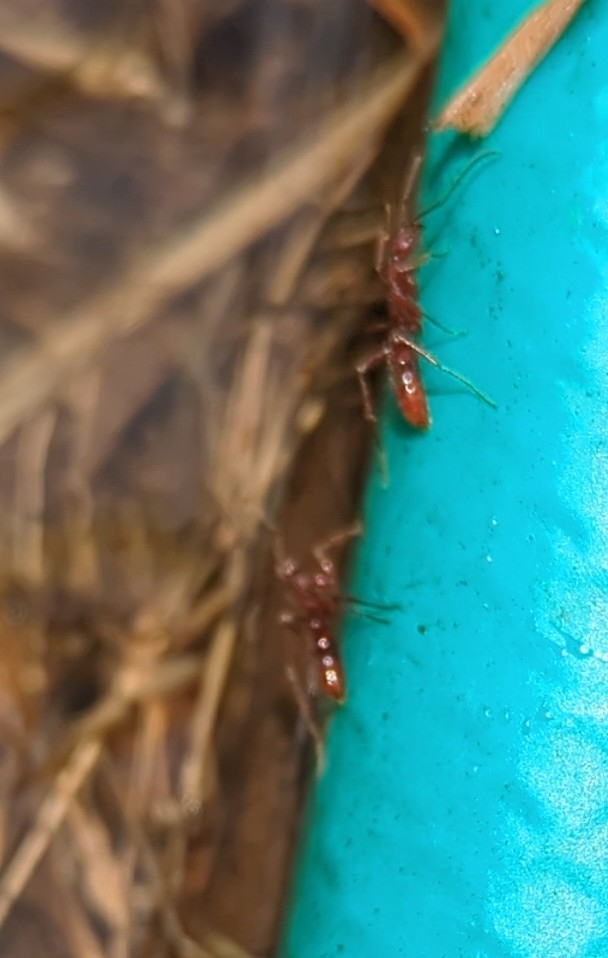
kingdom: Animalia
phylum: Arthropoda
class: Insecta
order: Hymenoptera
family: Formicidae
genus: Leptogenys
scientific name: Leptogenys elongata
